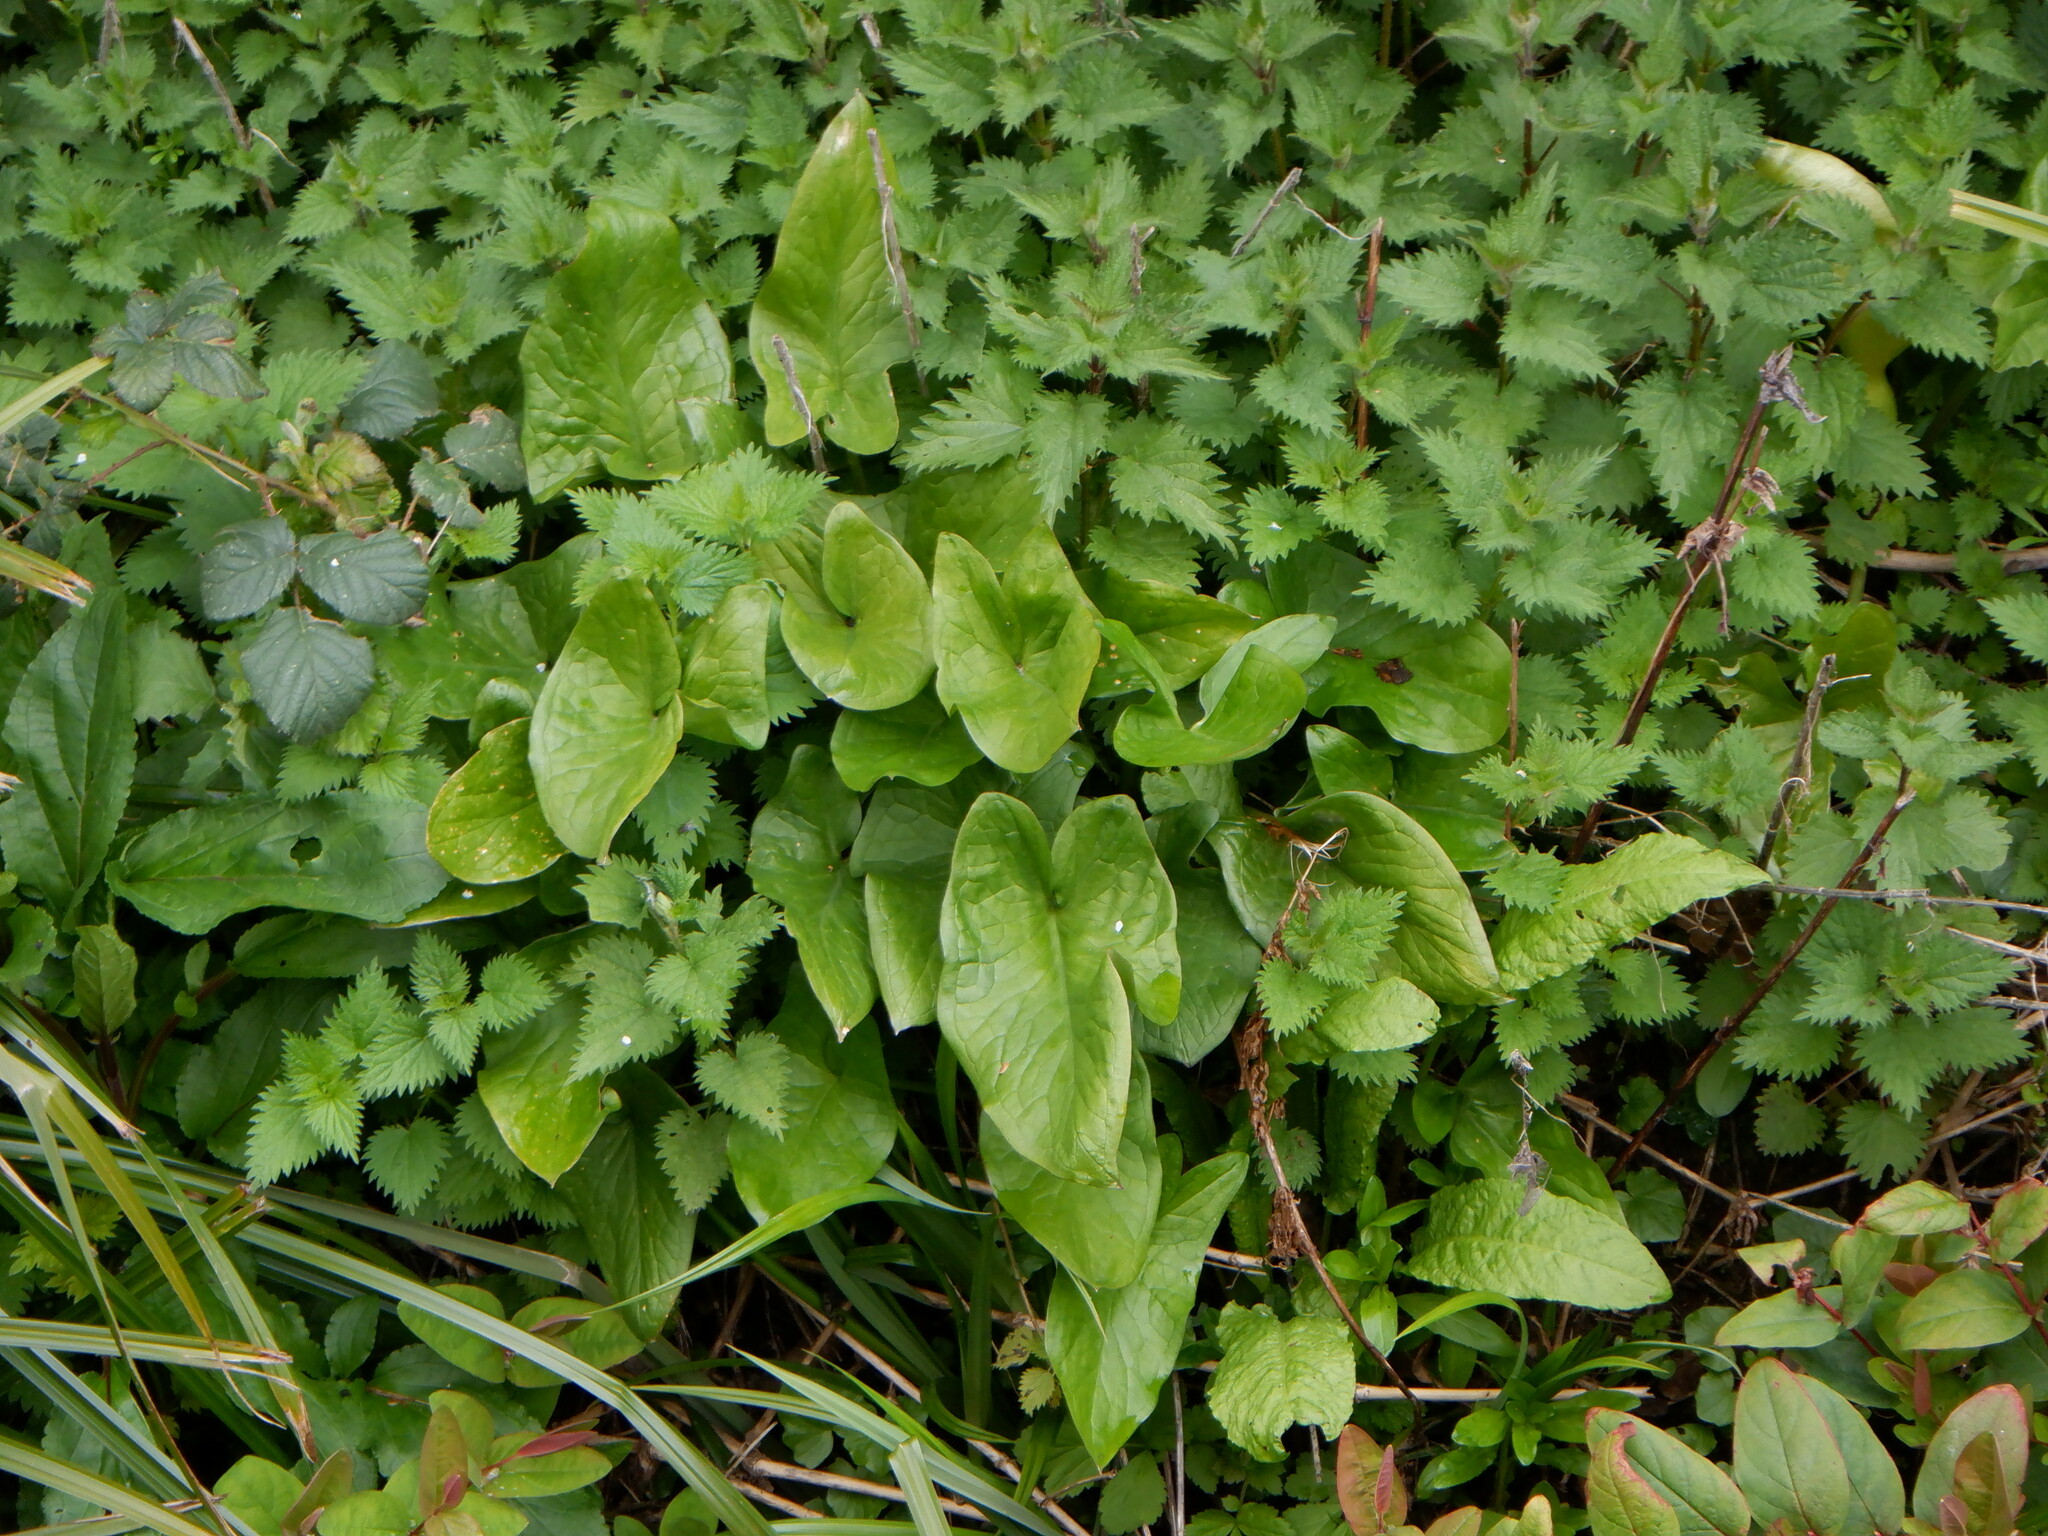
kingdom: Plantae
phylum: Tracheophyta
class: Liliopsida
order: Alismatales
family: Araceae
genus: Arum
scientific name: Arum maculatum
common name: Lords-and-ladies
